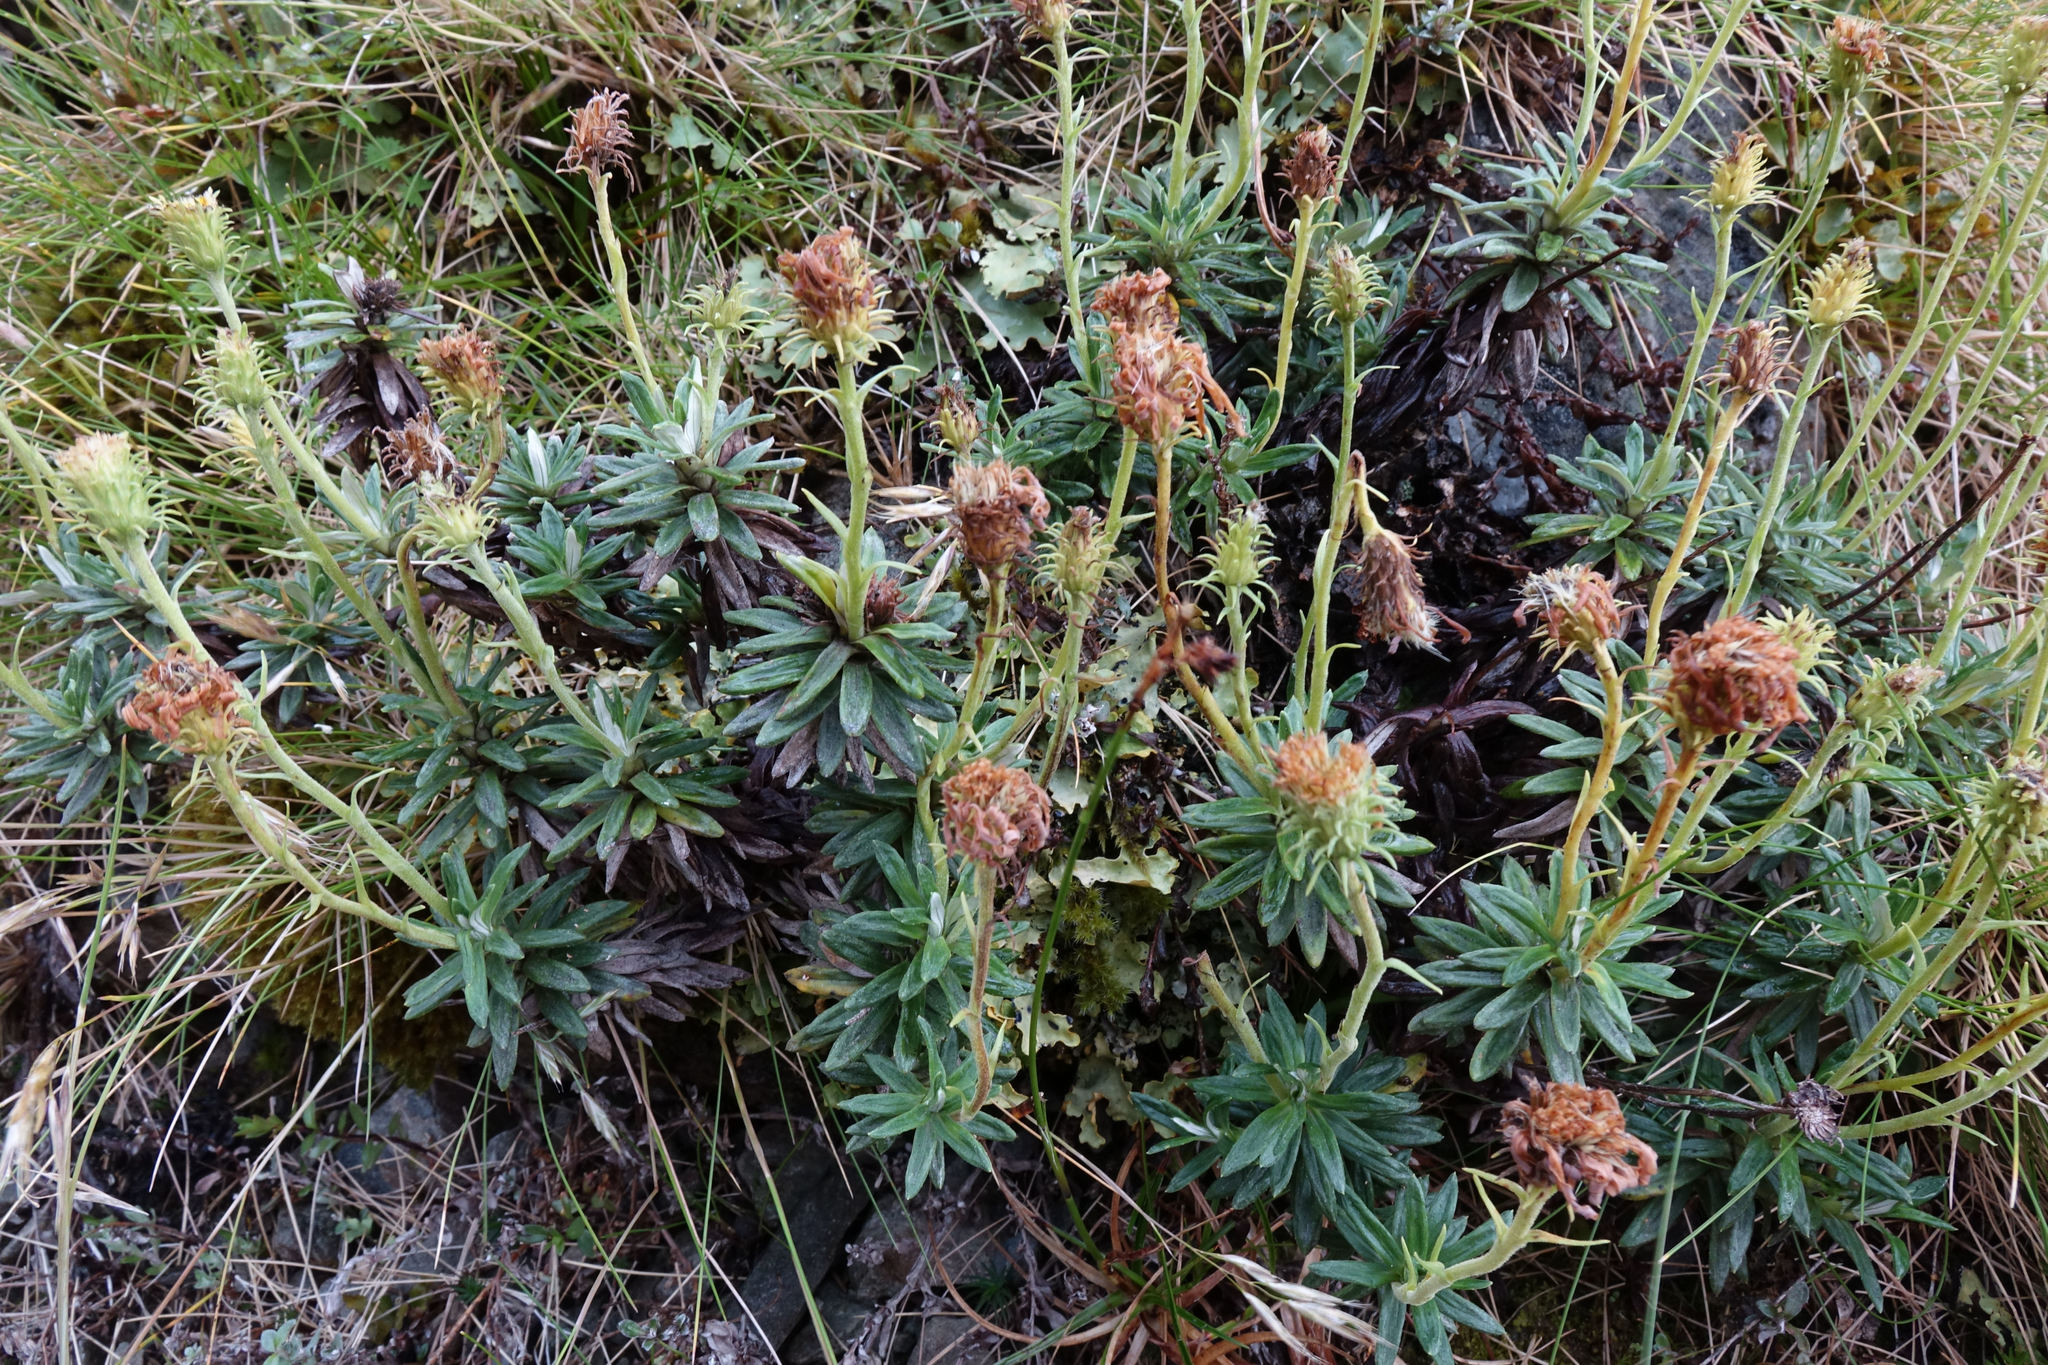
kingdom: Plantae
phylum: Tracheophyta
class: Magnoliopsida
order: Asterales
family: Asteraceae
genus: Celmisia
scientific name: Celmisia walkeri
